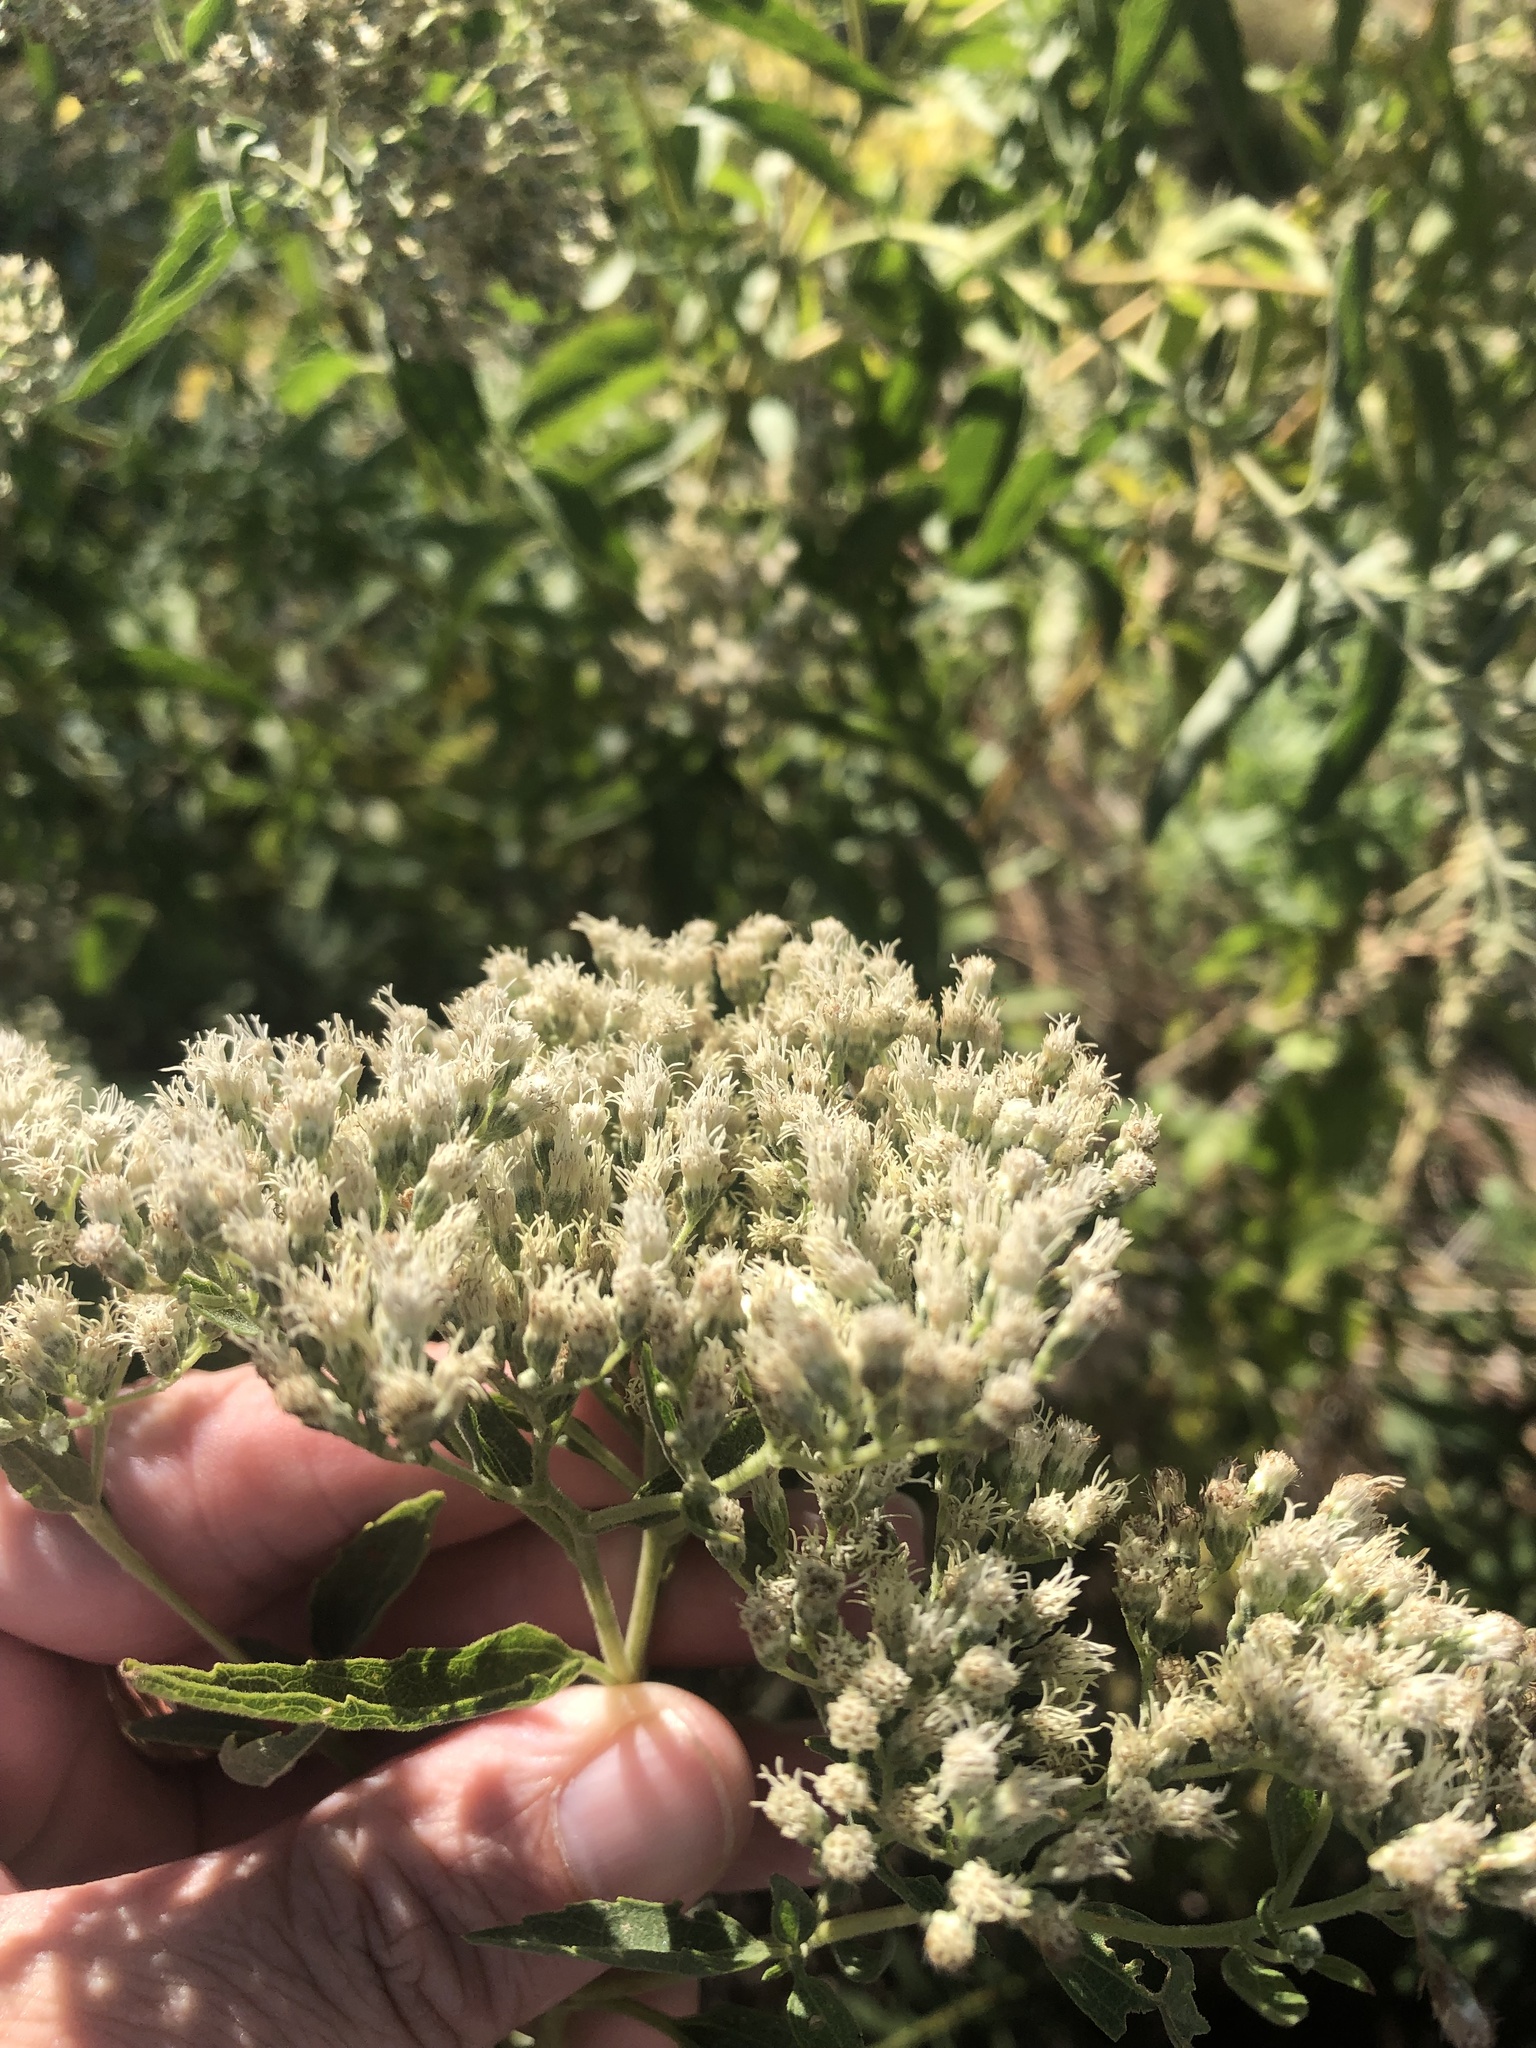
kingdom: Plantae
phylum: Tracheophyta
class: Magnoliopsida
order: Asterales
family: Asteraceae
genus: Eupatorium
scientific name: Eupatorium serotinum
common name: Late boneset
